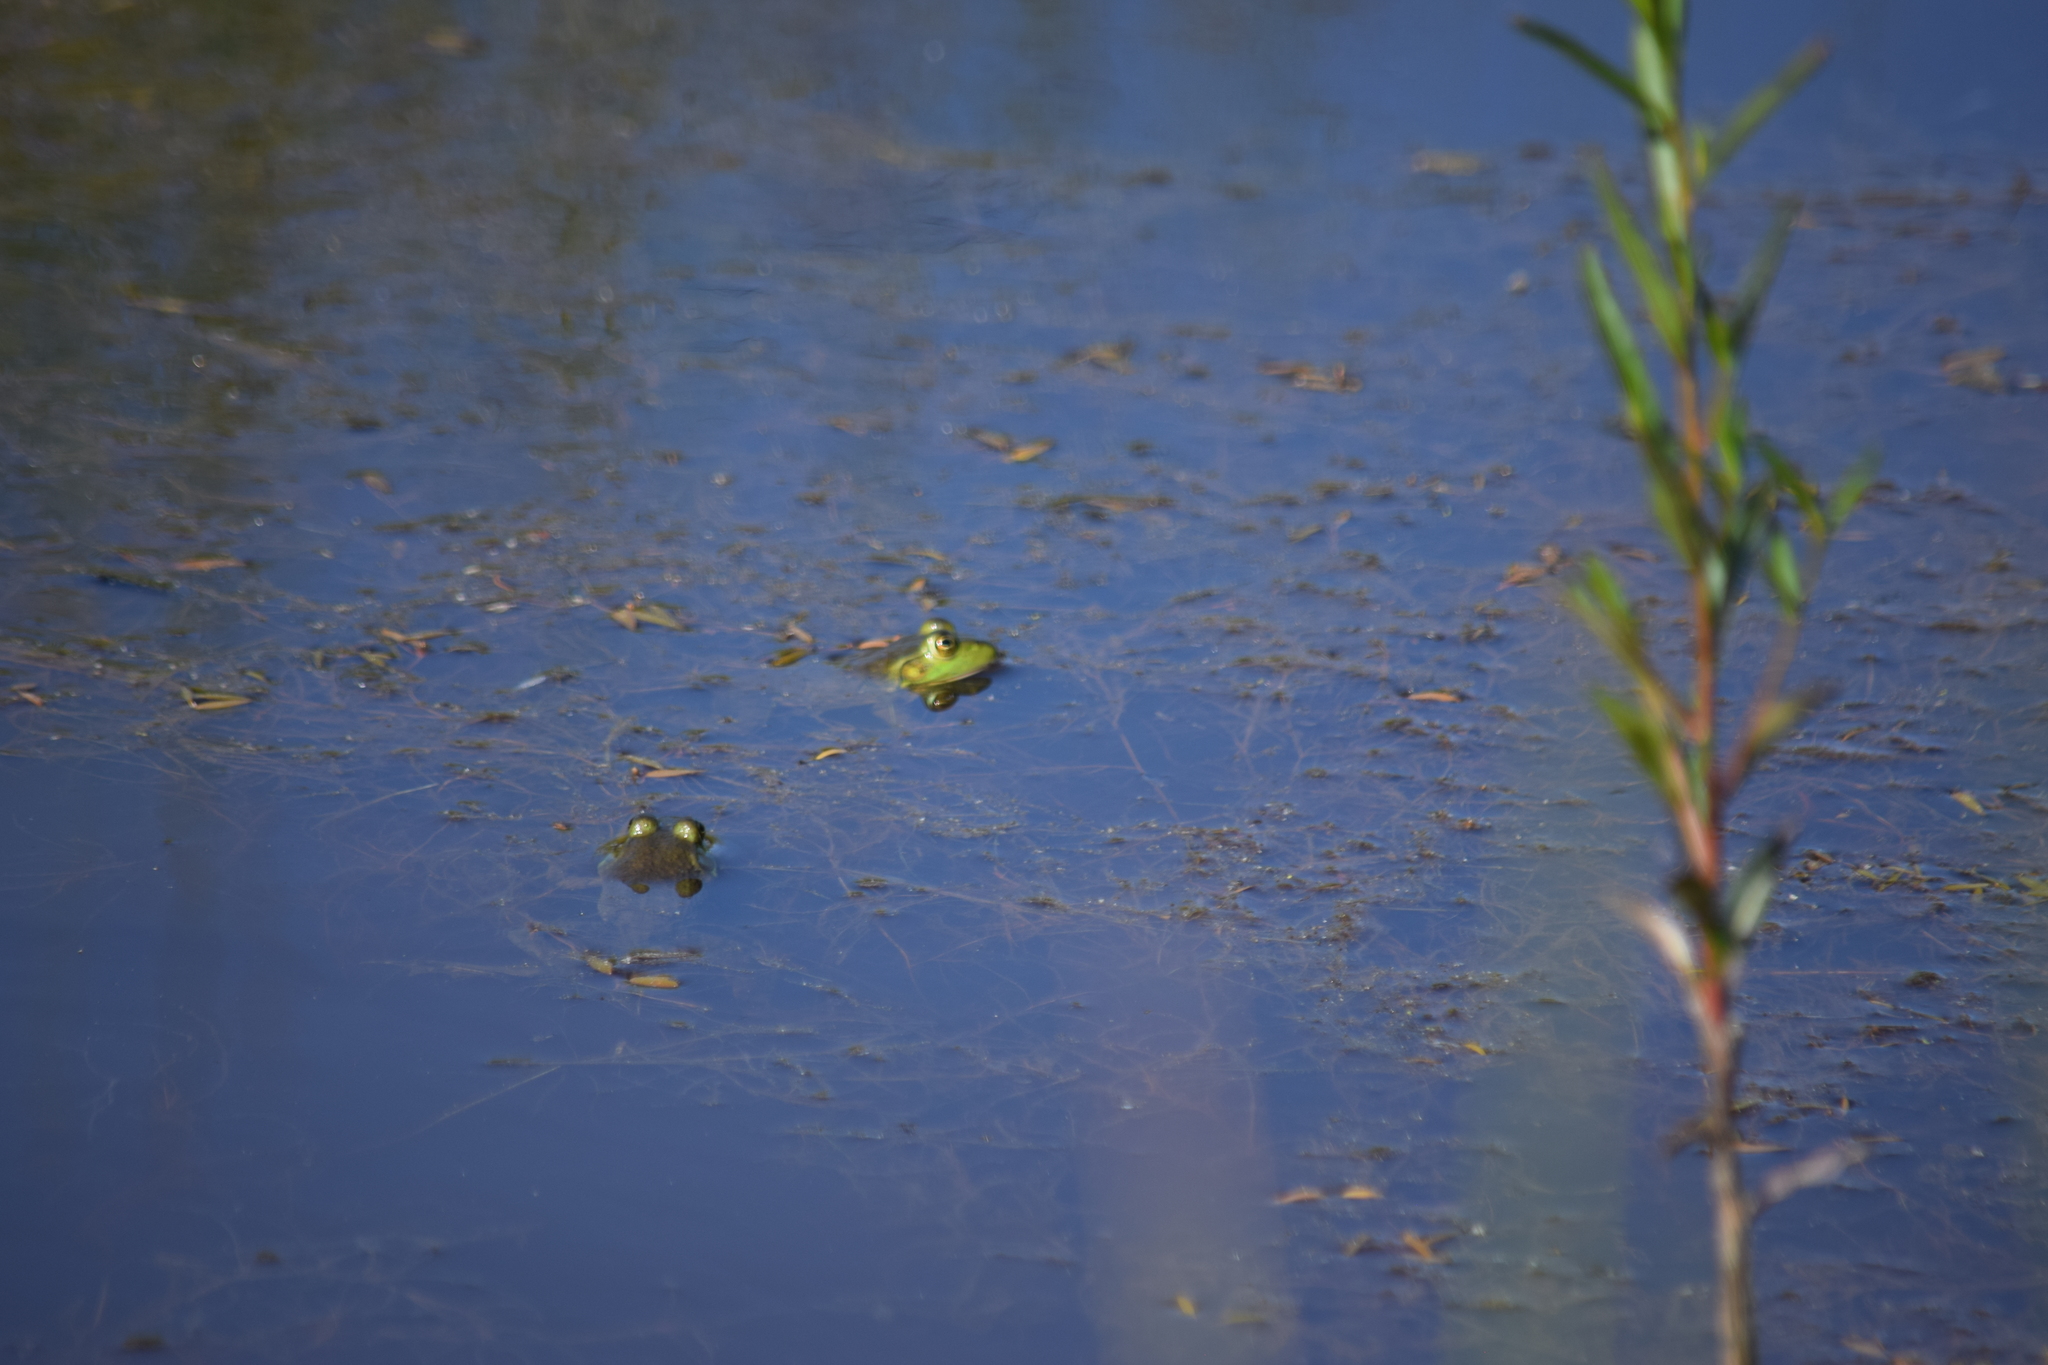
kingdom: Animalia
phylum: Chordata
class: Amphibia
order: Anura
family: Ranidae
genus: Lithobates
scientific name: Lithobates catesbeianus
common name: American bullfrog
